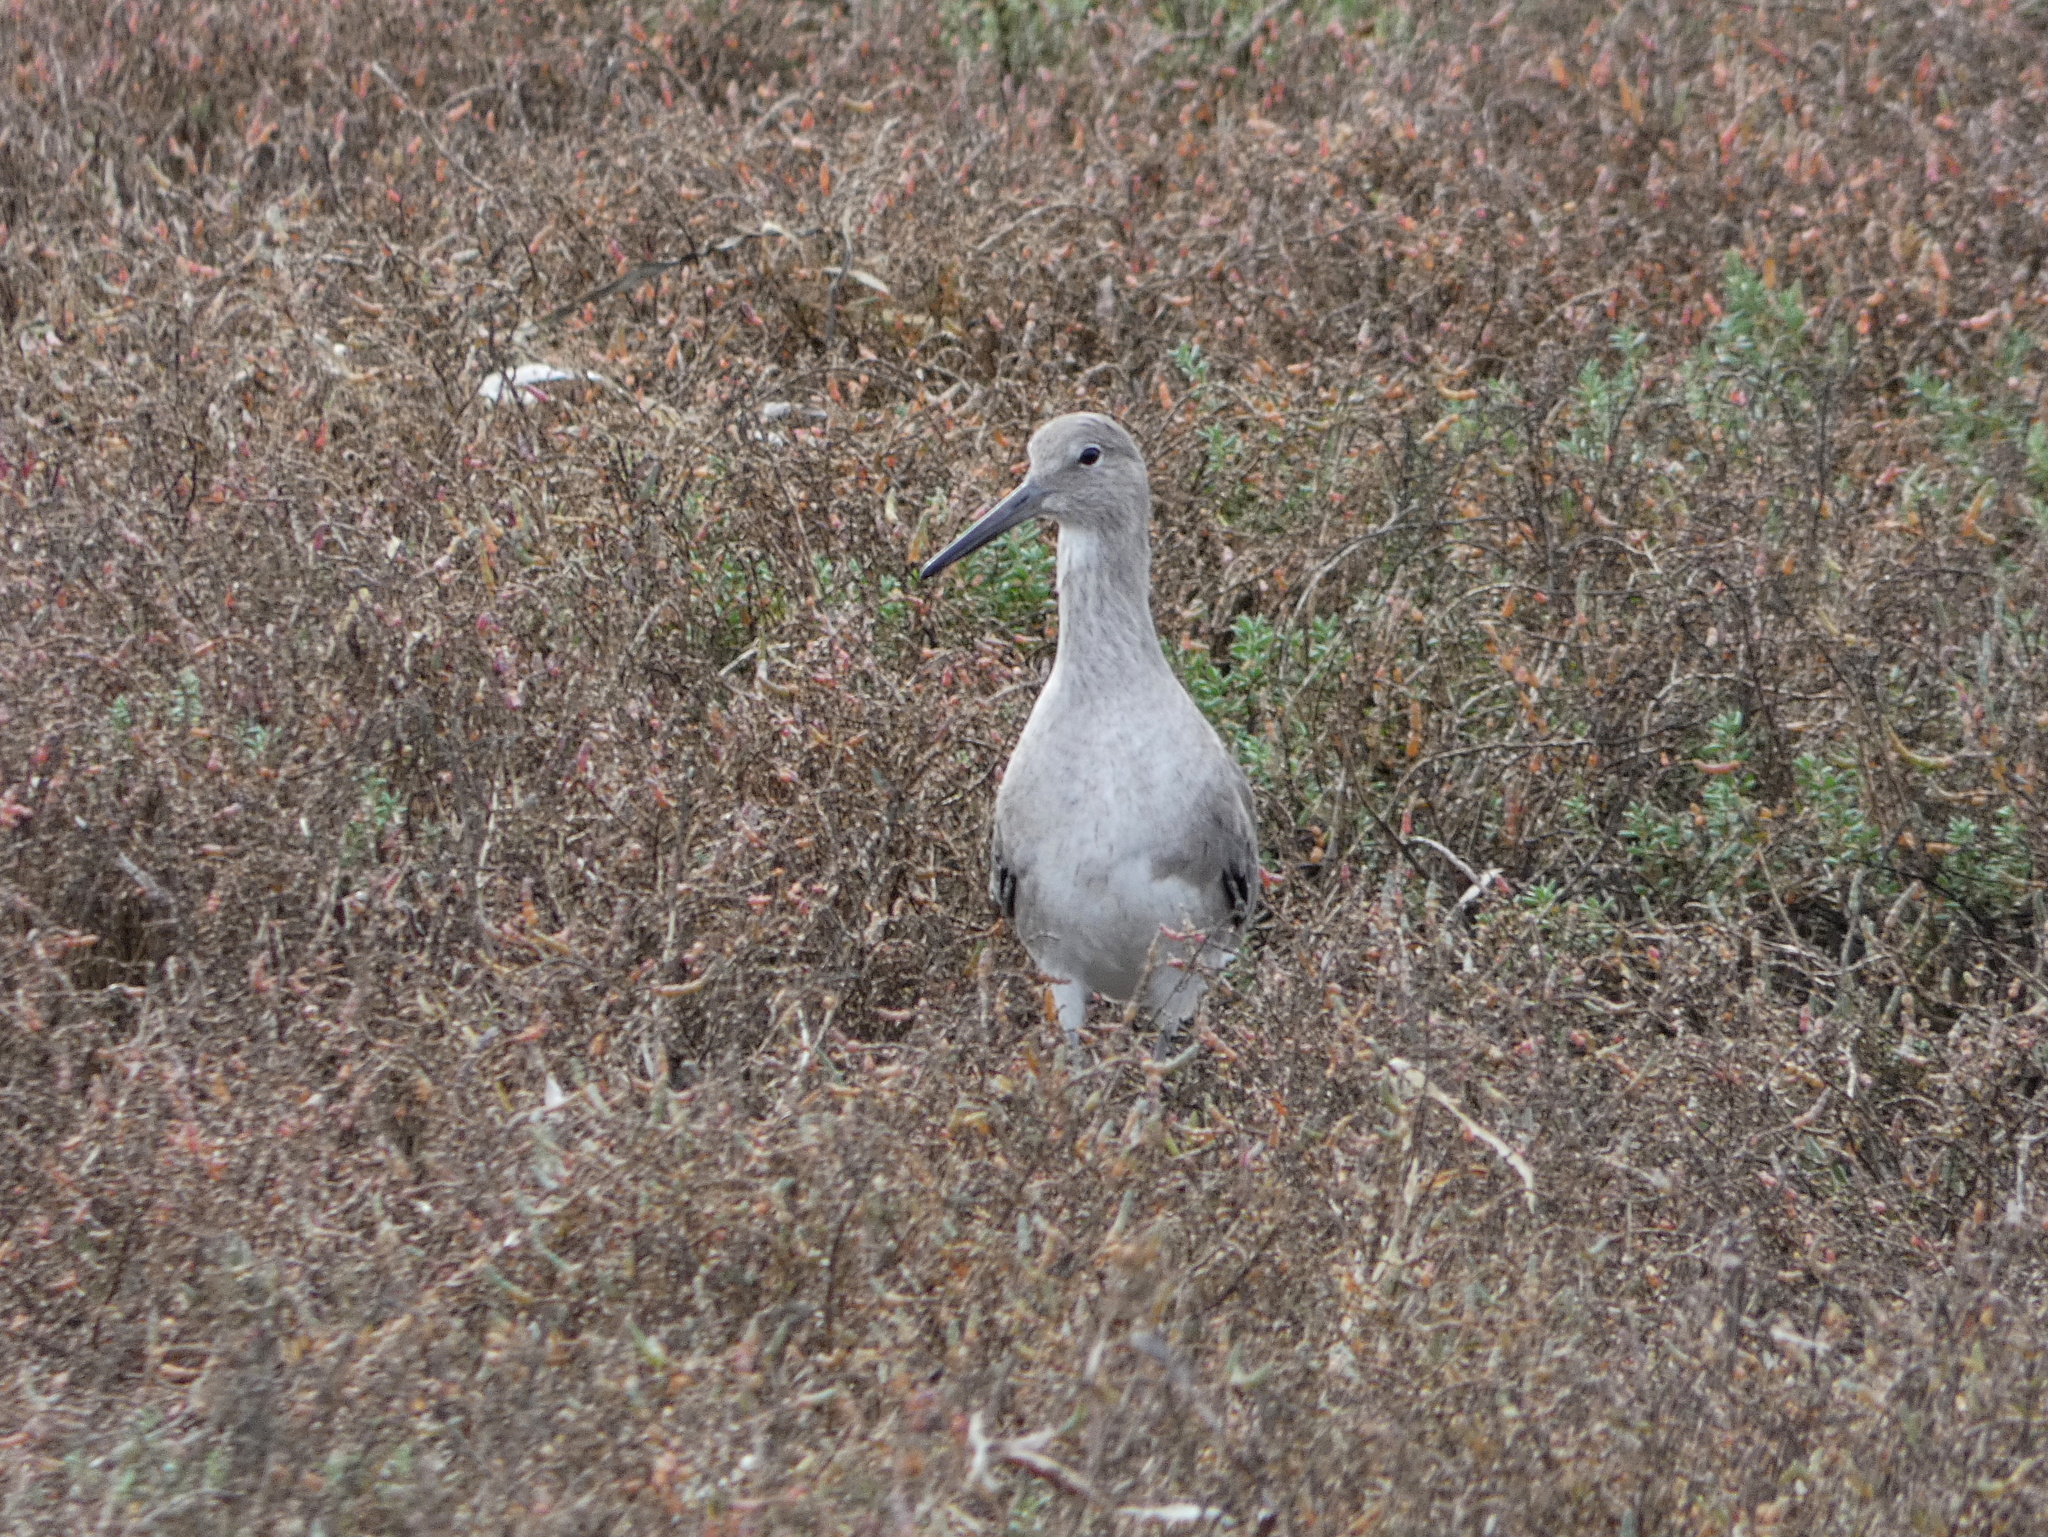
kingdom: Animalia
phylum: Chordata
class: Aves
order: Charadriiformes
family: Scolopacidae
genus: Tringa
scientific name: Tringa semipalmata
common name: Willet
